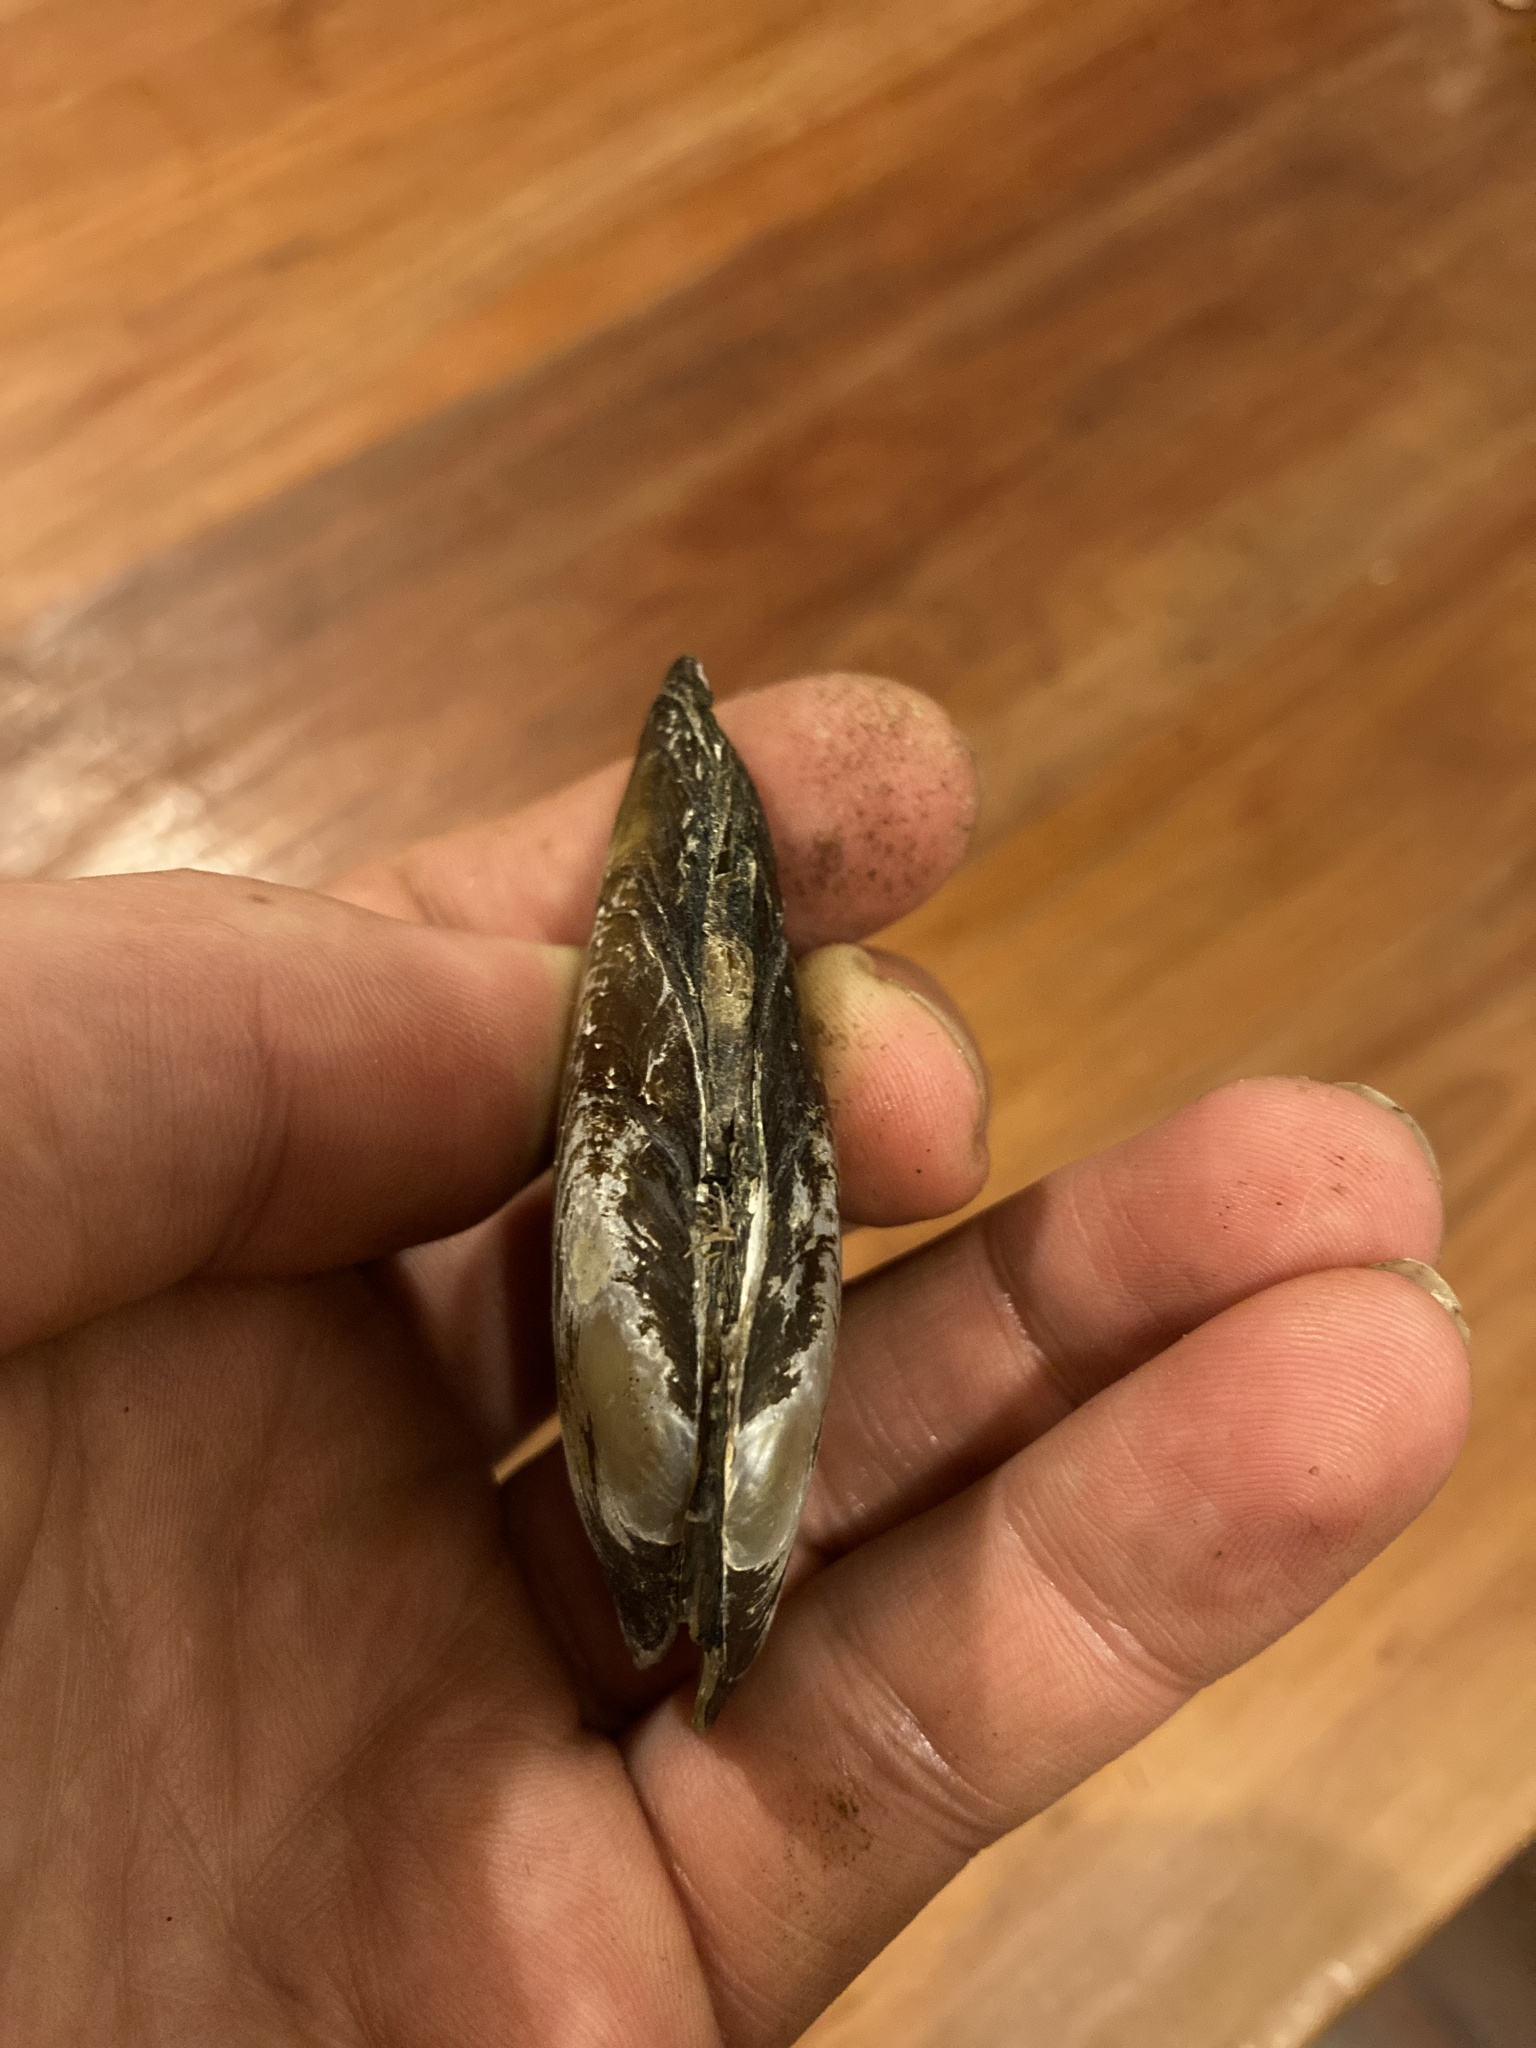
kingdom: Animalia
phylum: Mollusca
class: Bivalvia
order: Unionida
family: Hyriidae
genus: Echyridella
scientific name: Echyridella menziesii
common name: New zealand freshwater mussel
